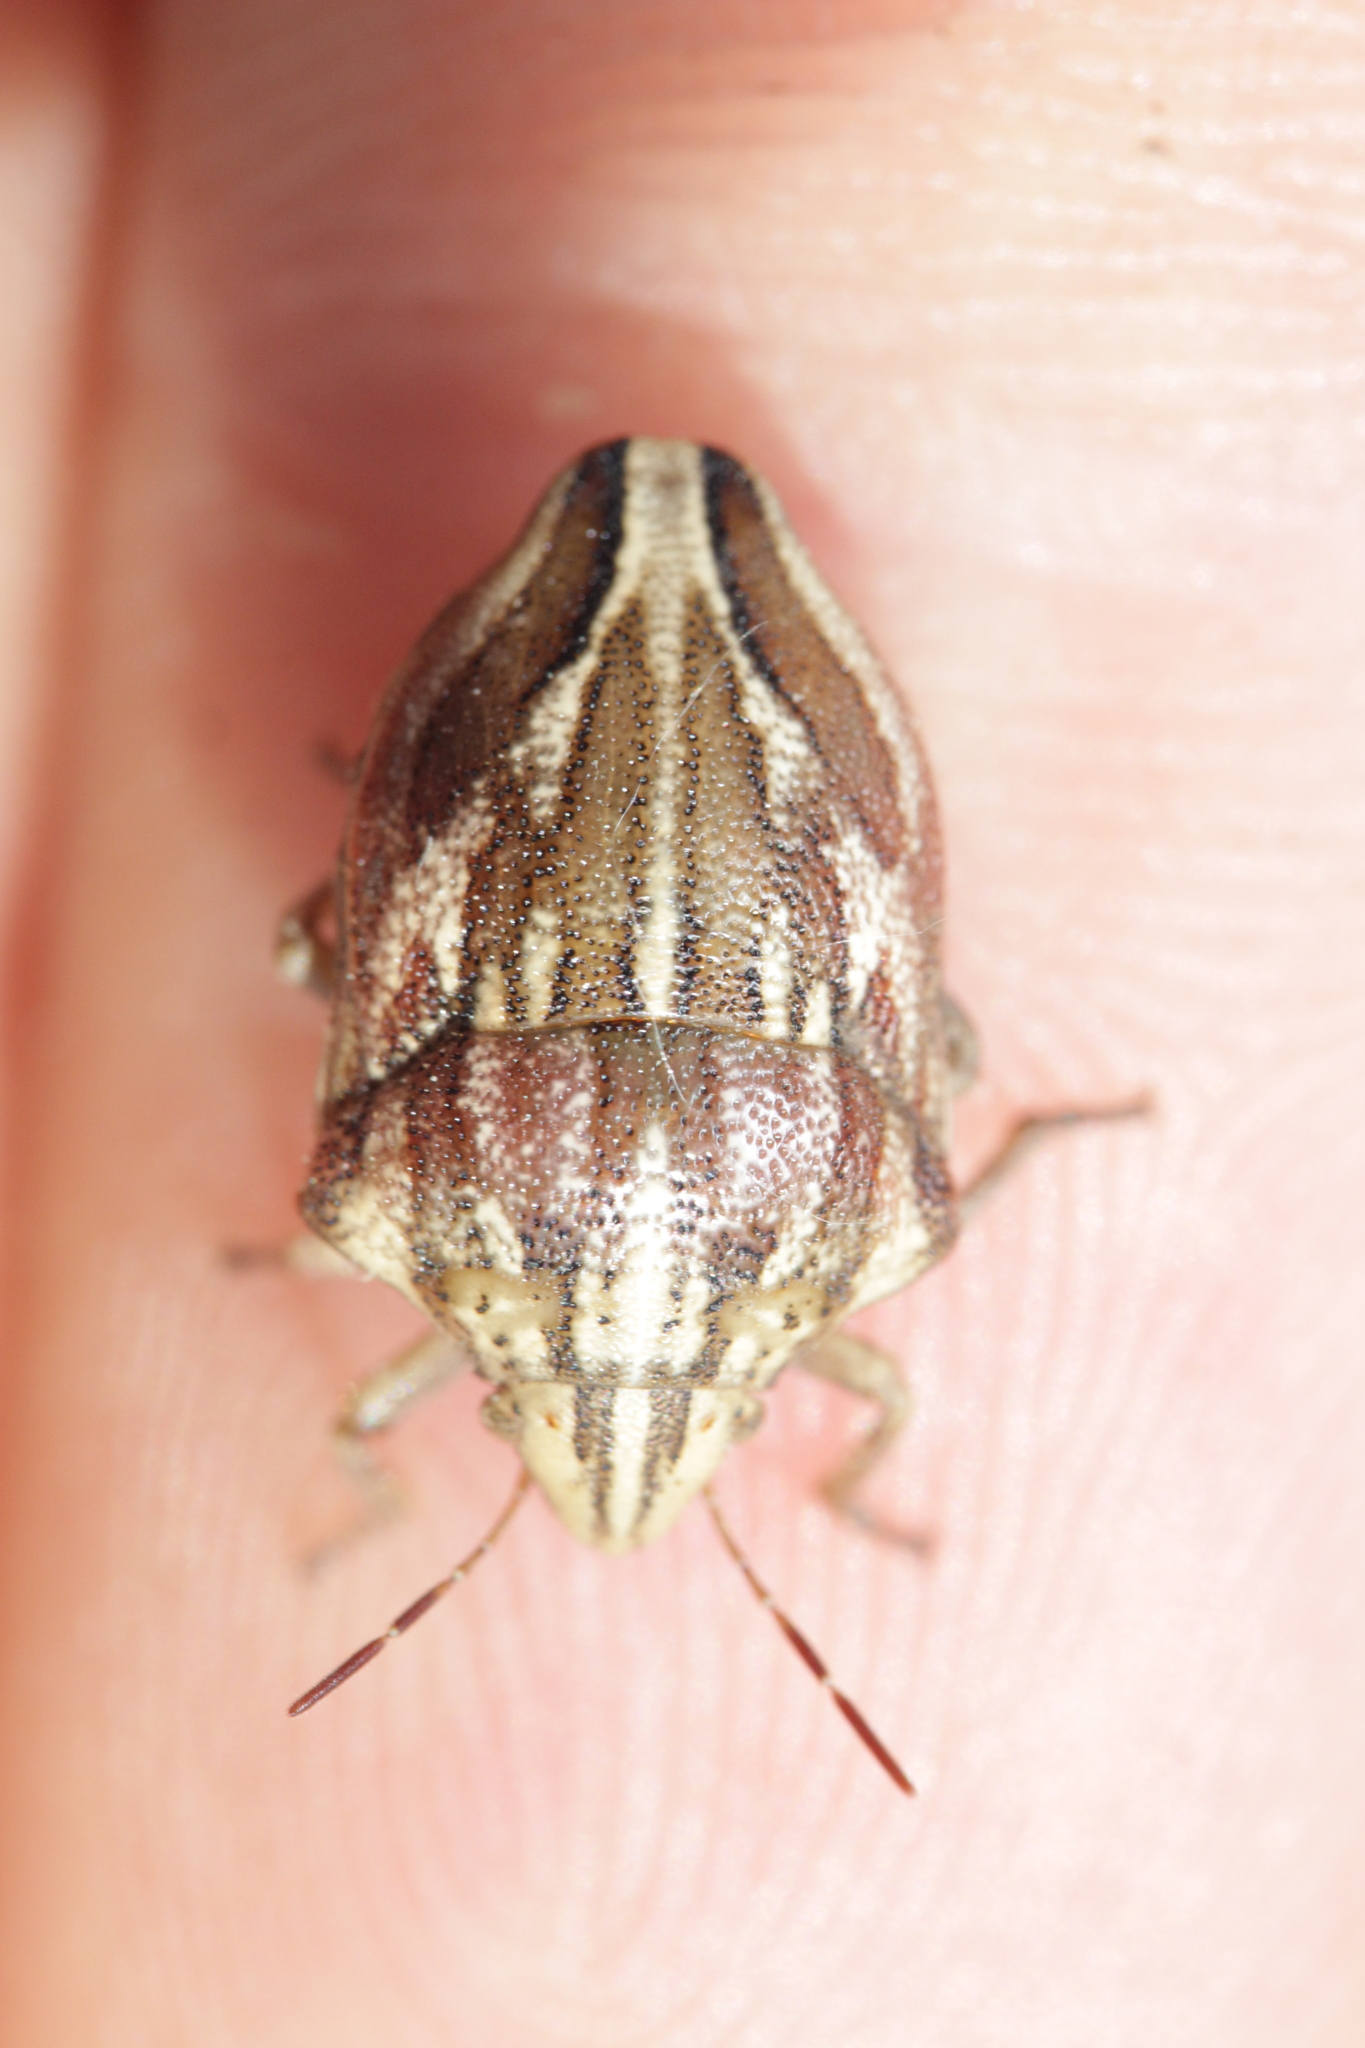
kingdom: Animalia
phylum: Arthropoda
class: Insecta
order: Hemiptera
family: Scutelleridae
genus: Odontotarsus
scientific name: Odontotarsus purpureolineatus
